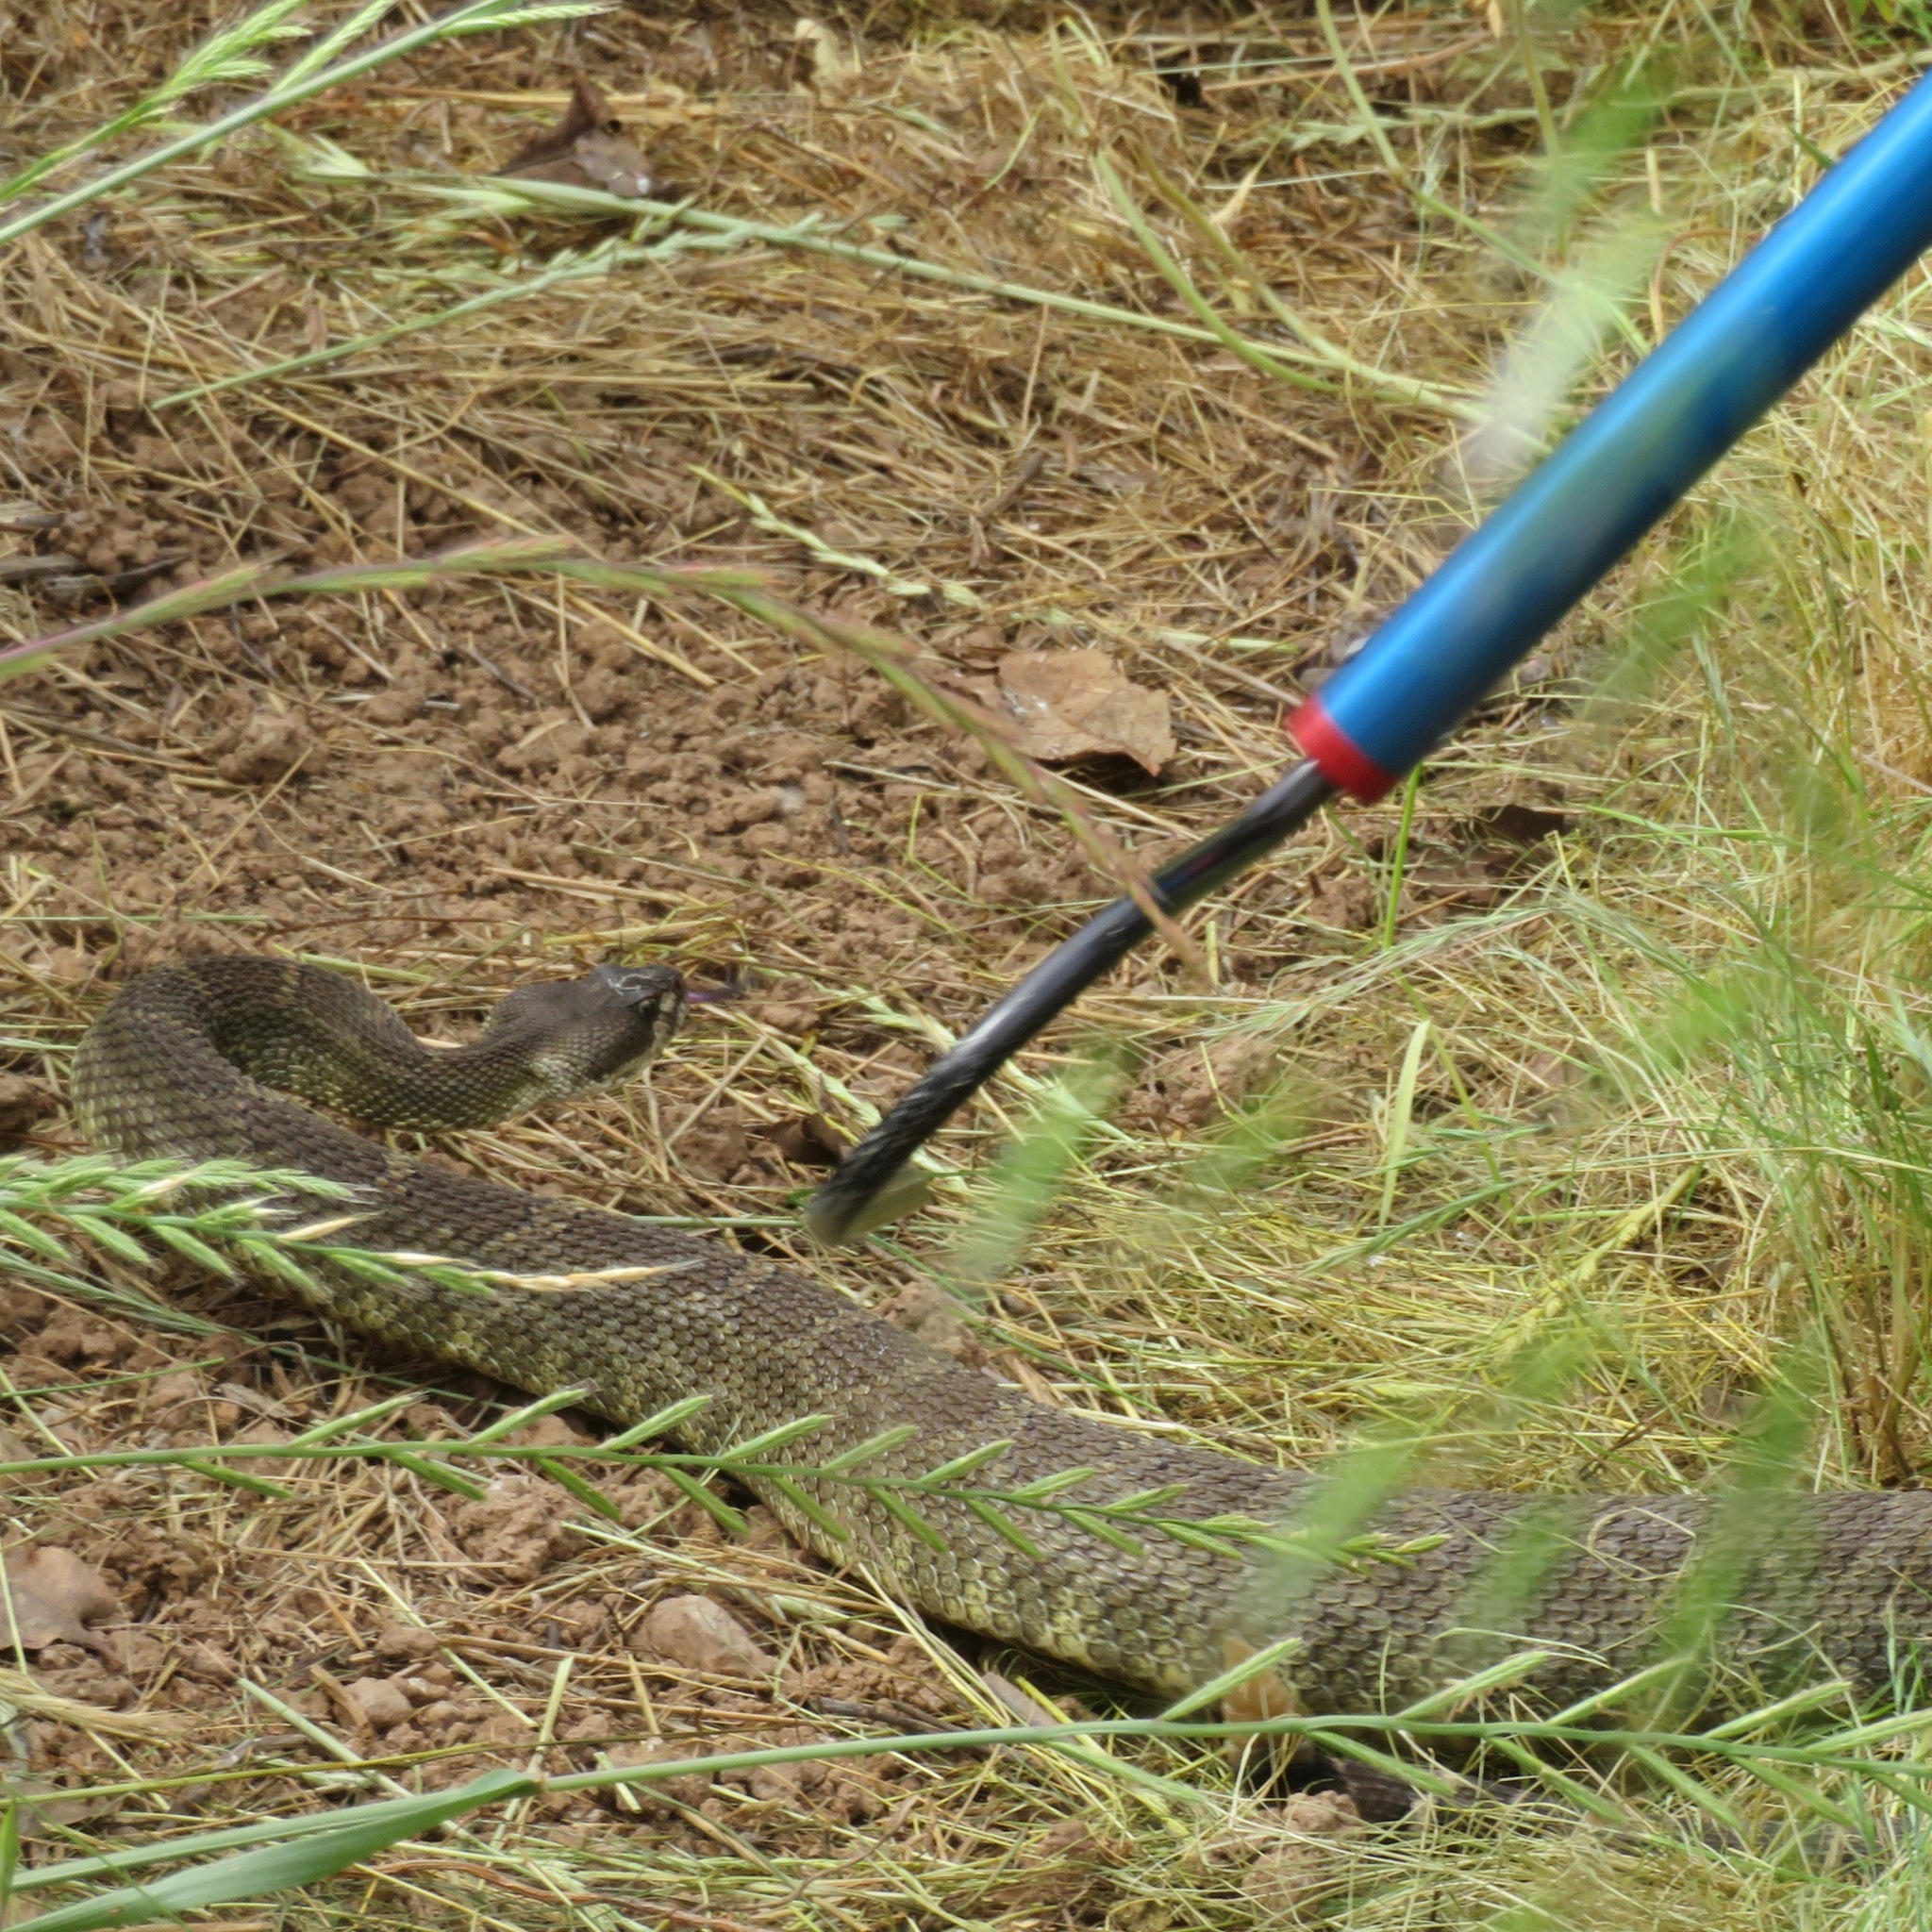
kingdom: Animalia
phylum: Chordata
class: Squamata
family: Viperidae
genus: Crotalus
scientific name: Crotalus oreganus
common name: Abyssus
